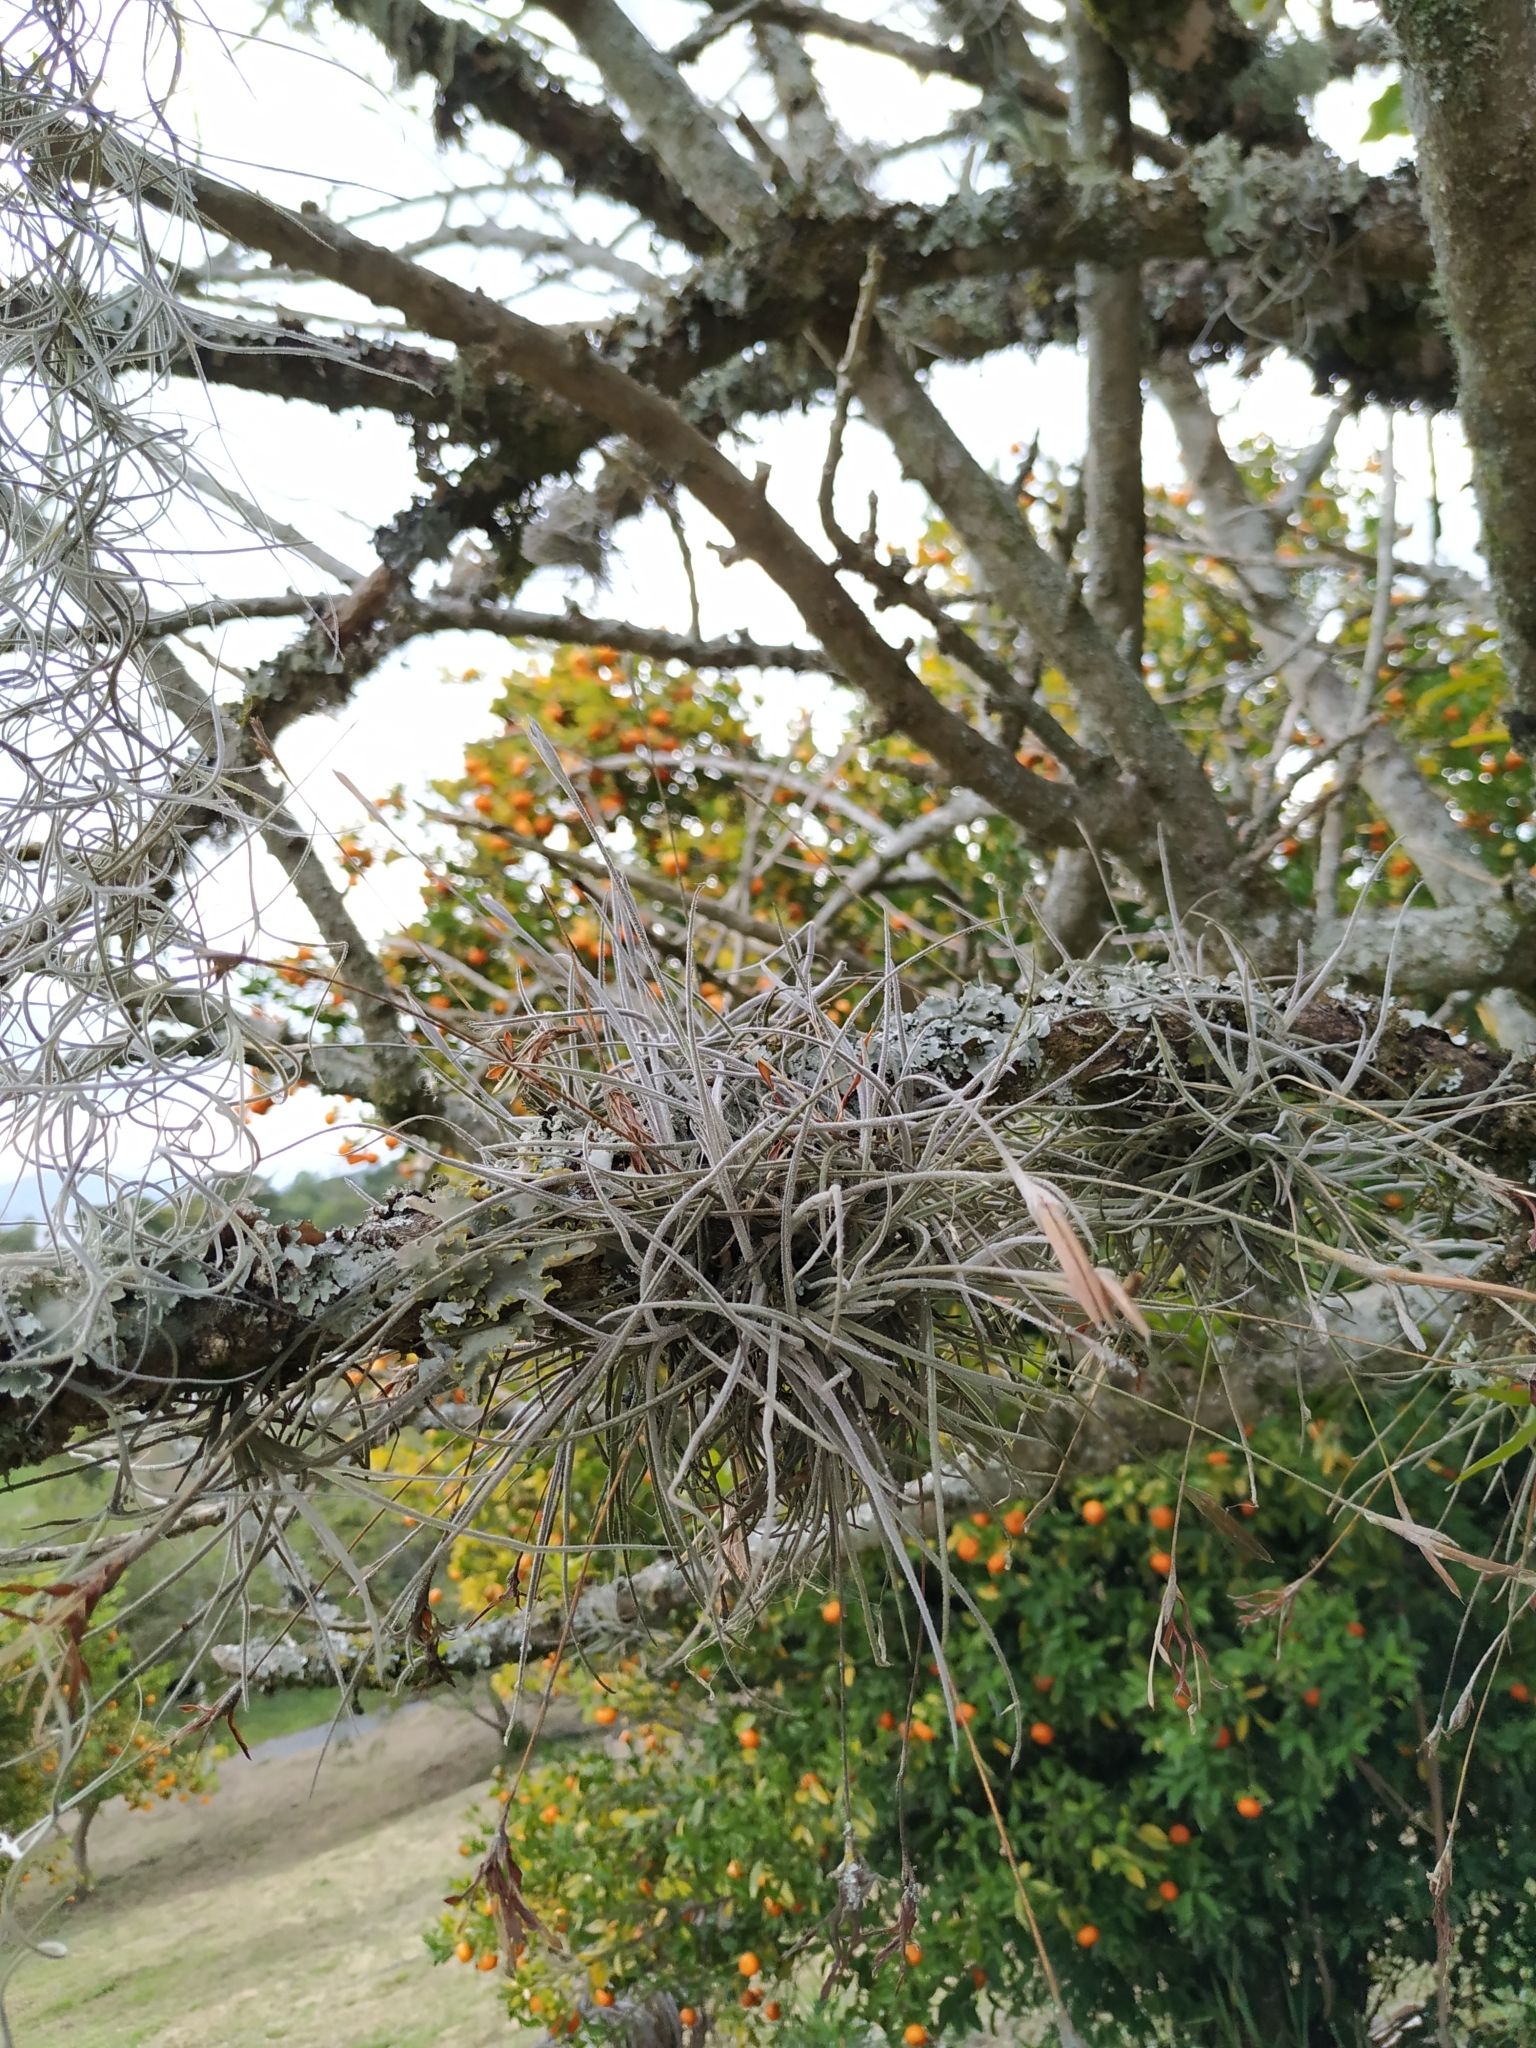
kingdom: Plantae
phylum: Tracheophyta
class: Liliopsida
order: Poales
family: Bromeliaceae
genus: Tillandsia
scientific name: Tillandsia recurvata
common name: Small ballmoss
